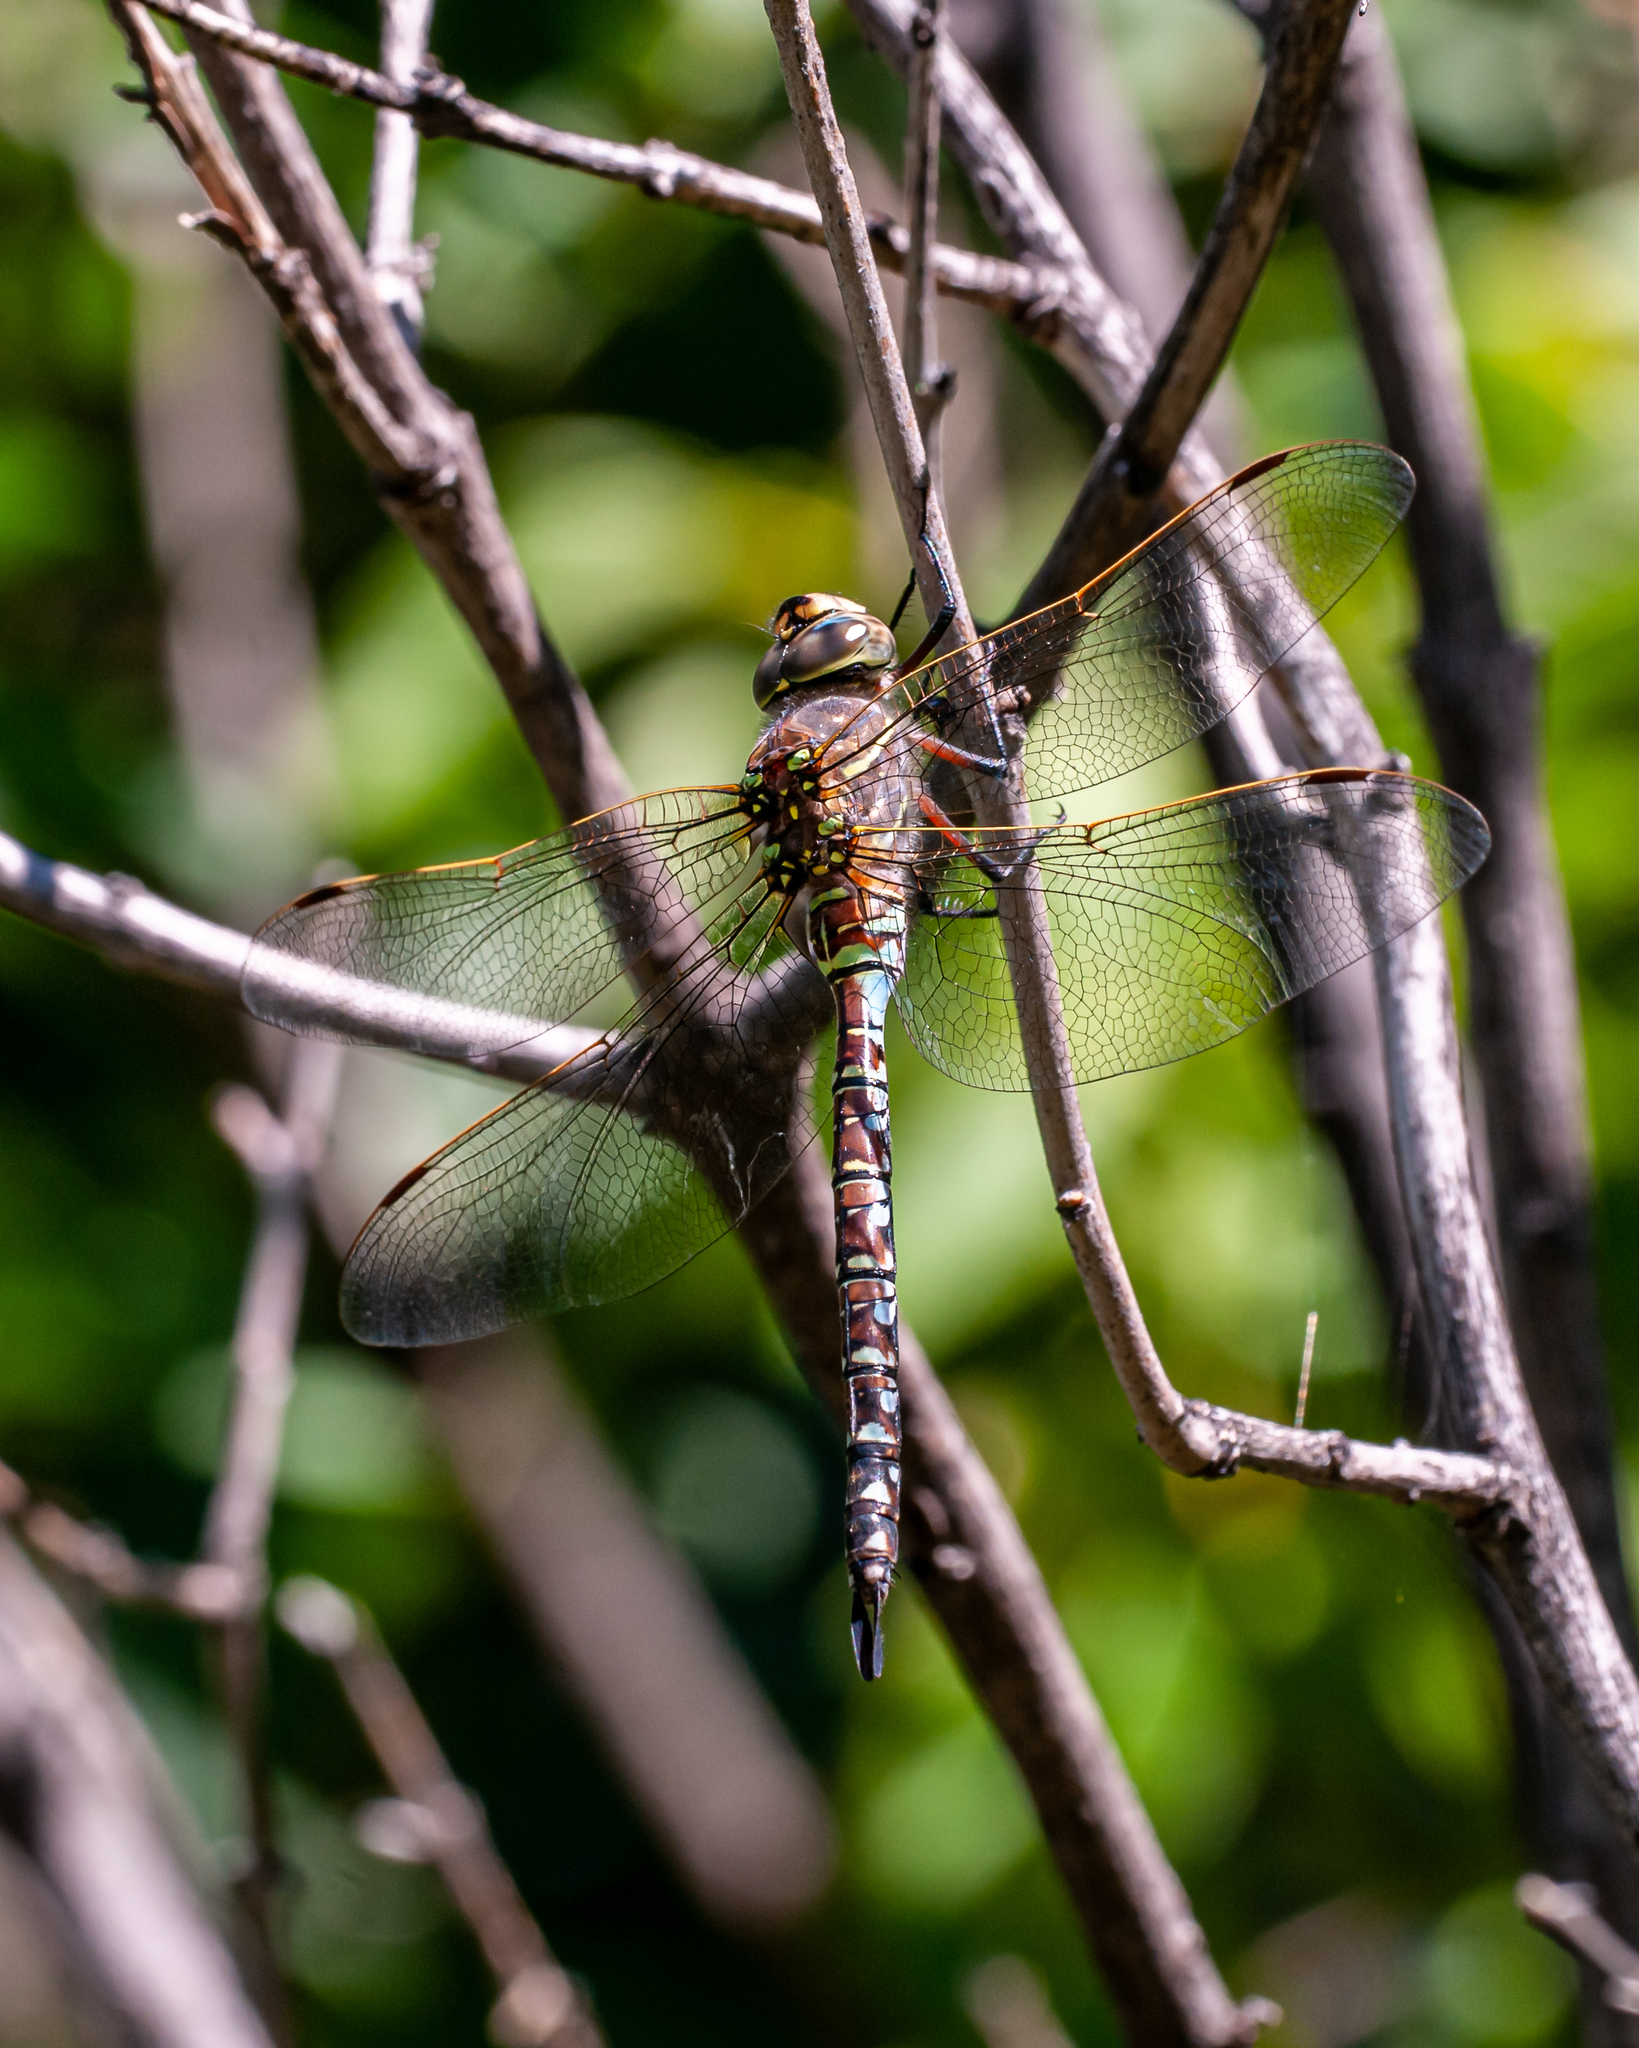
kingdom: Animalia
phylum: Arthropoda
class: Insecta
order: Odonata
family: Aeshnidae
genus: Aeshna
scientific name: Aeshna interrupta
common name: Variable darner
